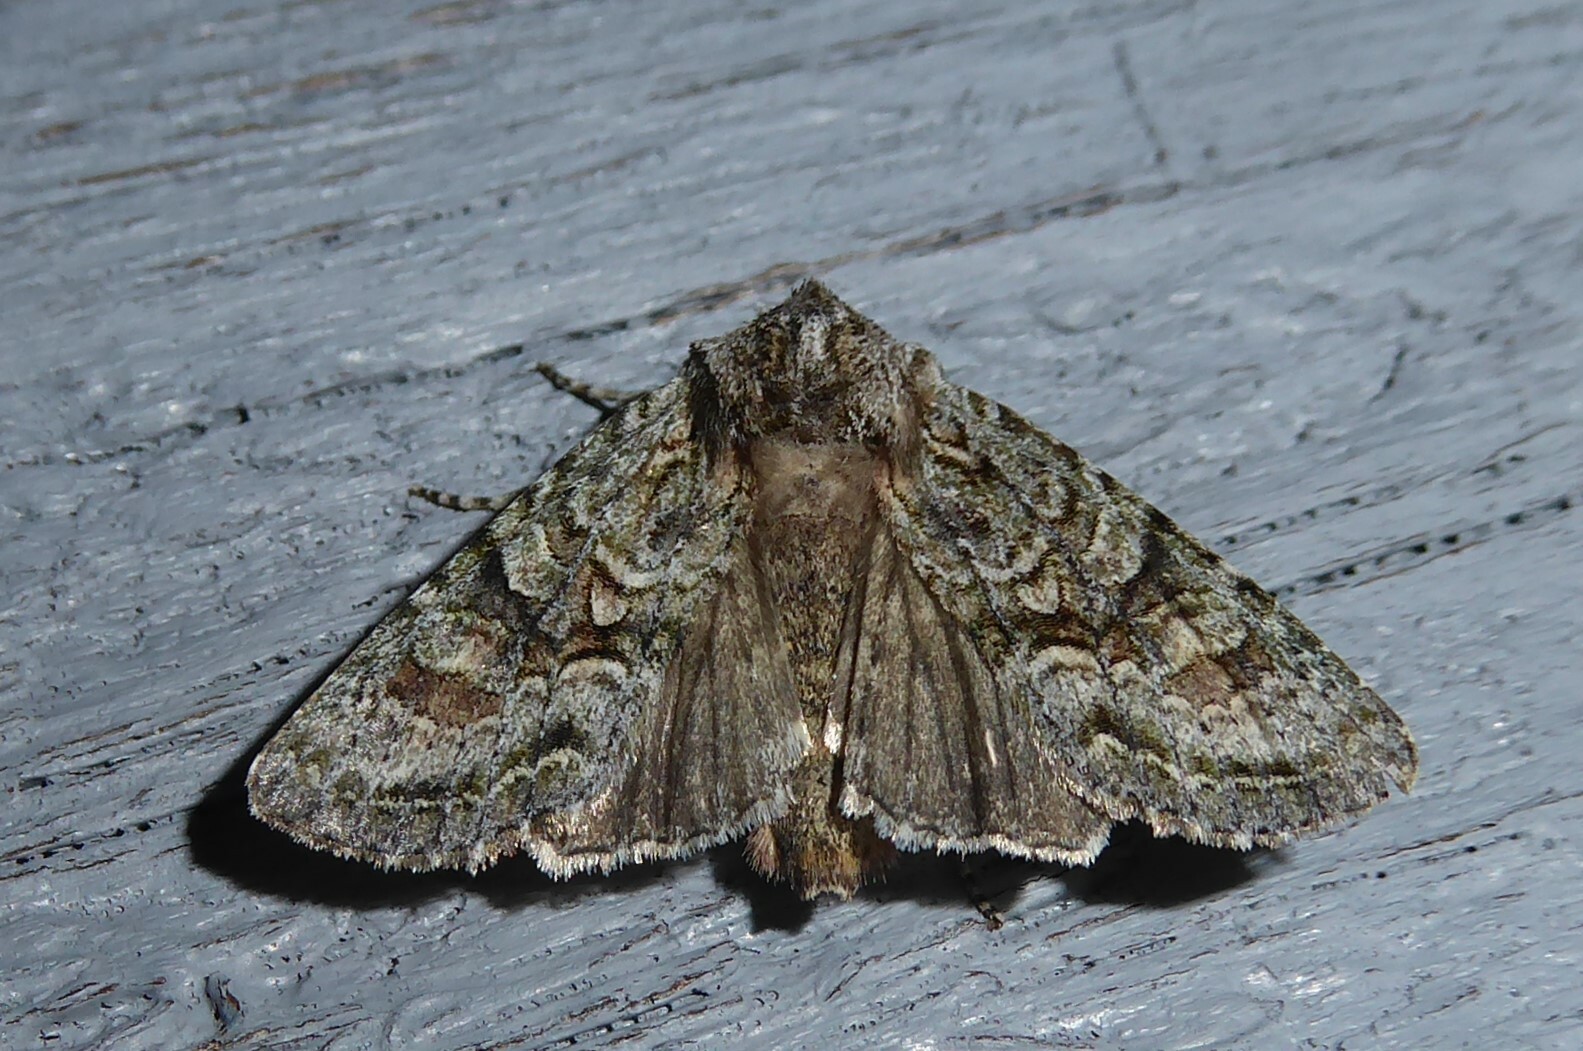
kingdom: Animalia
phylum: Arthropoda
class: Insecta
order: Lepidoptera
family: Noctuidae
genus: Ichneutica
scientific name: Ichneutica mutans
